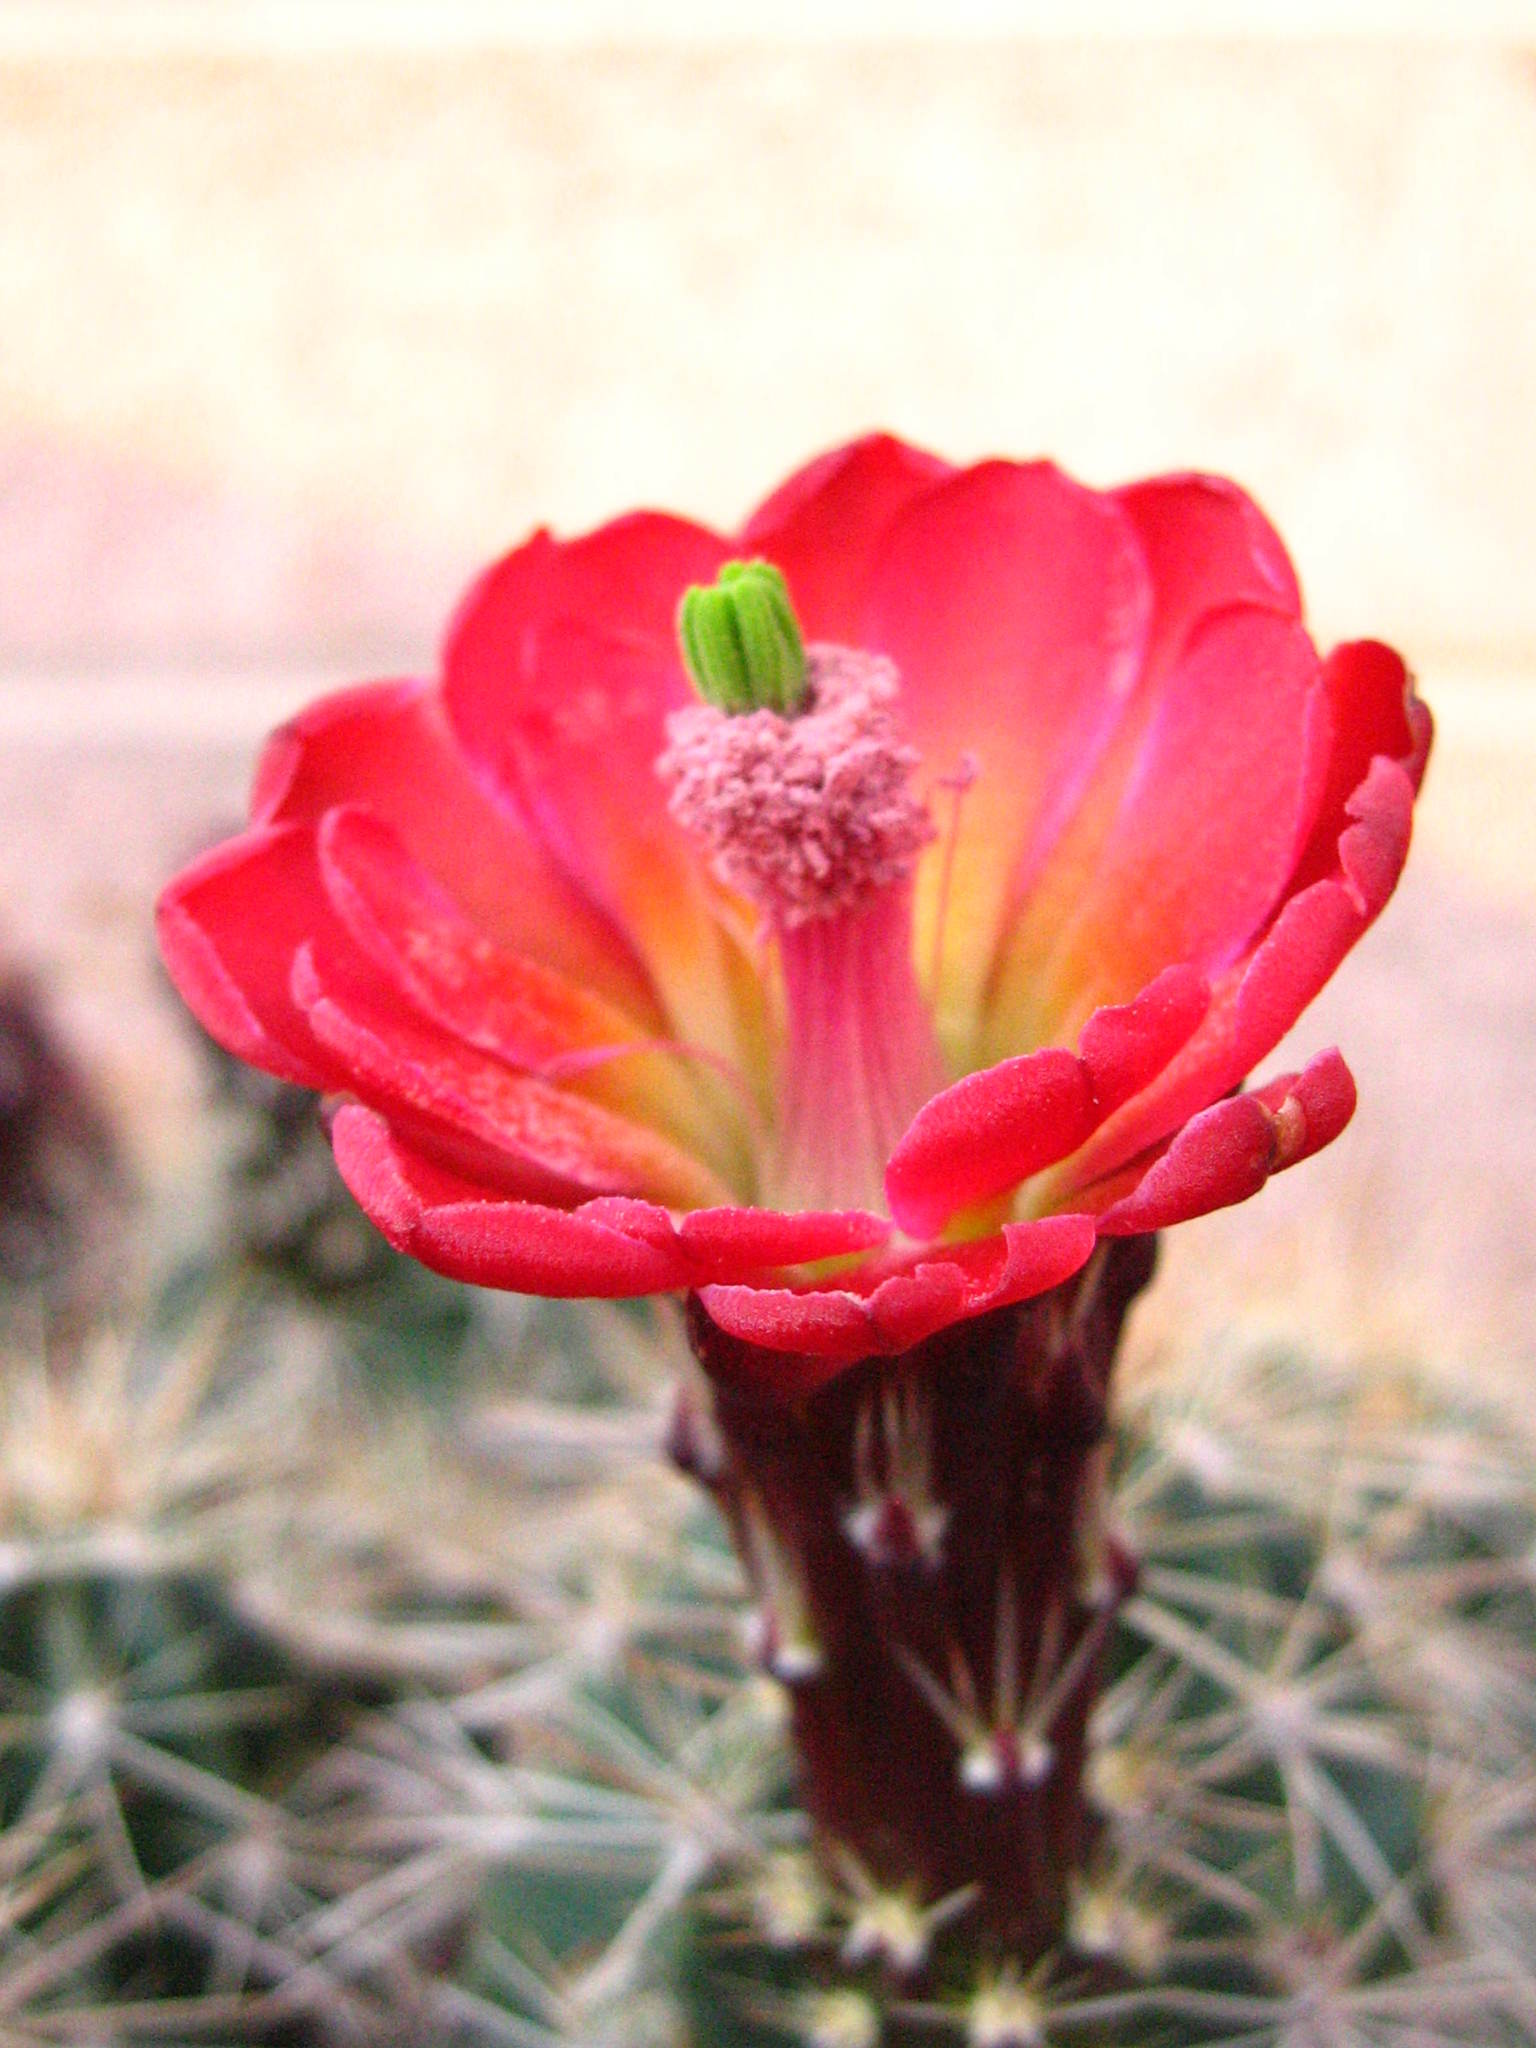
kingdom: Plantae
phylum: Tracheophyta
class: Magnoliopsida
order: Caryophyllales
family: Cactaceae
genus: Echinocereus
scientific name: Echinocereus bakeri
